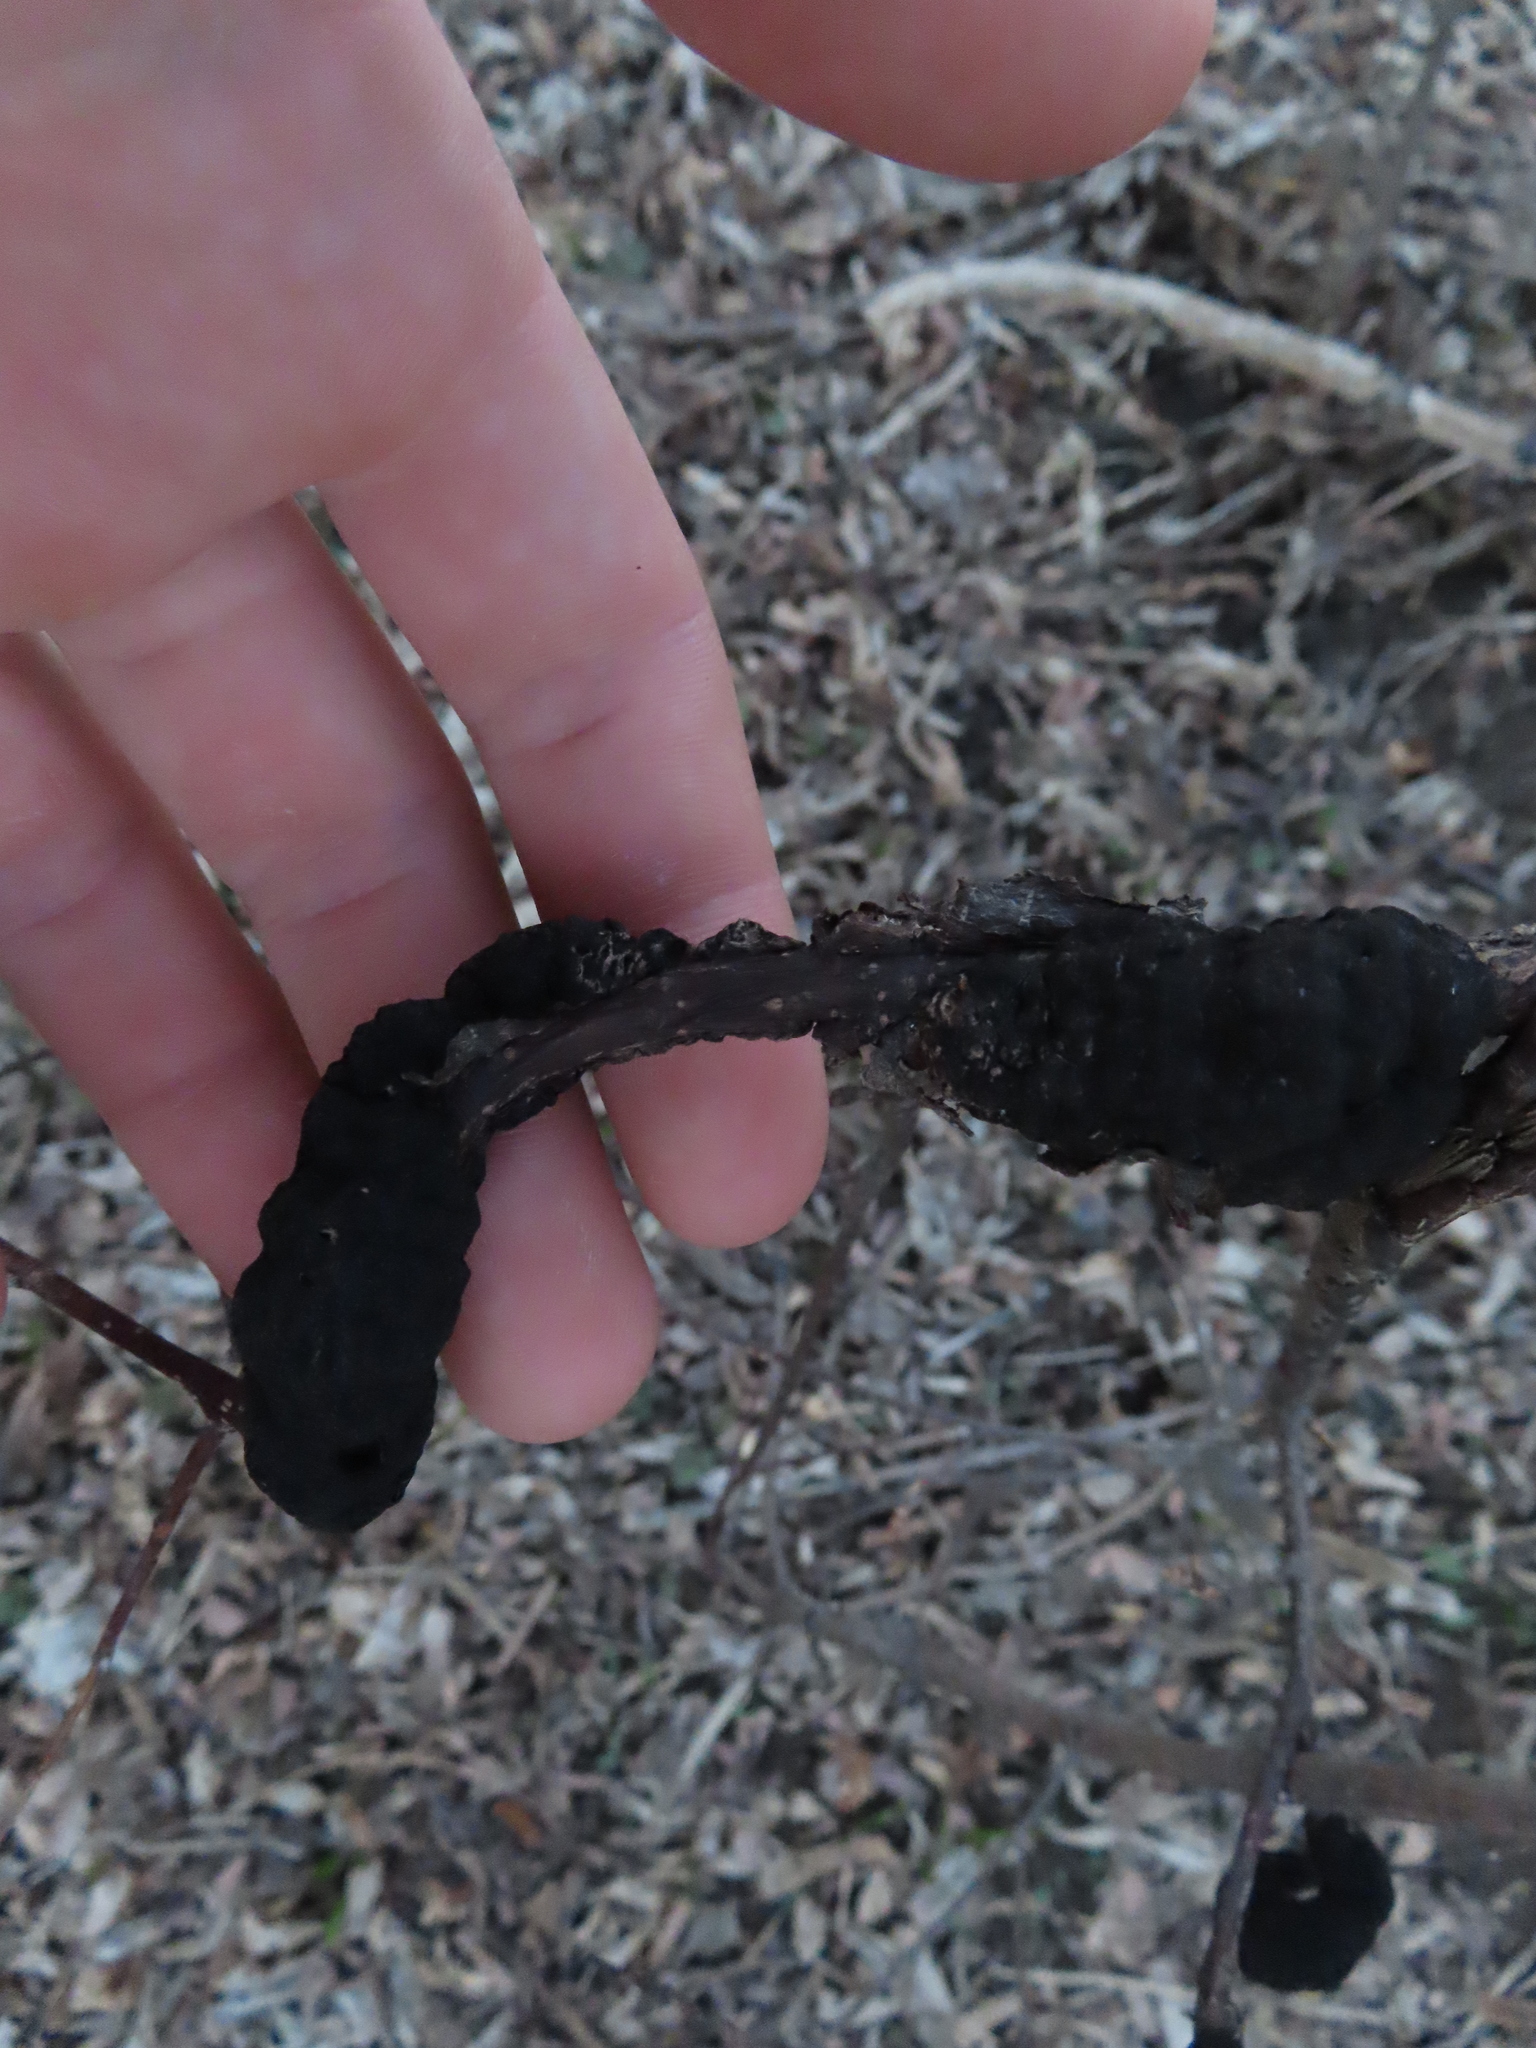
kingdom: Fungi
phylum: Ascomycota
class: Dothideomycetes
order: Venturiales
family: Venturiaceae
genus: Apiosporina
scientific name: Apiosporina morbosa
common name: Black knot
